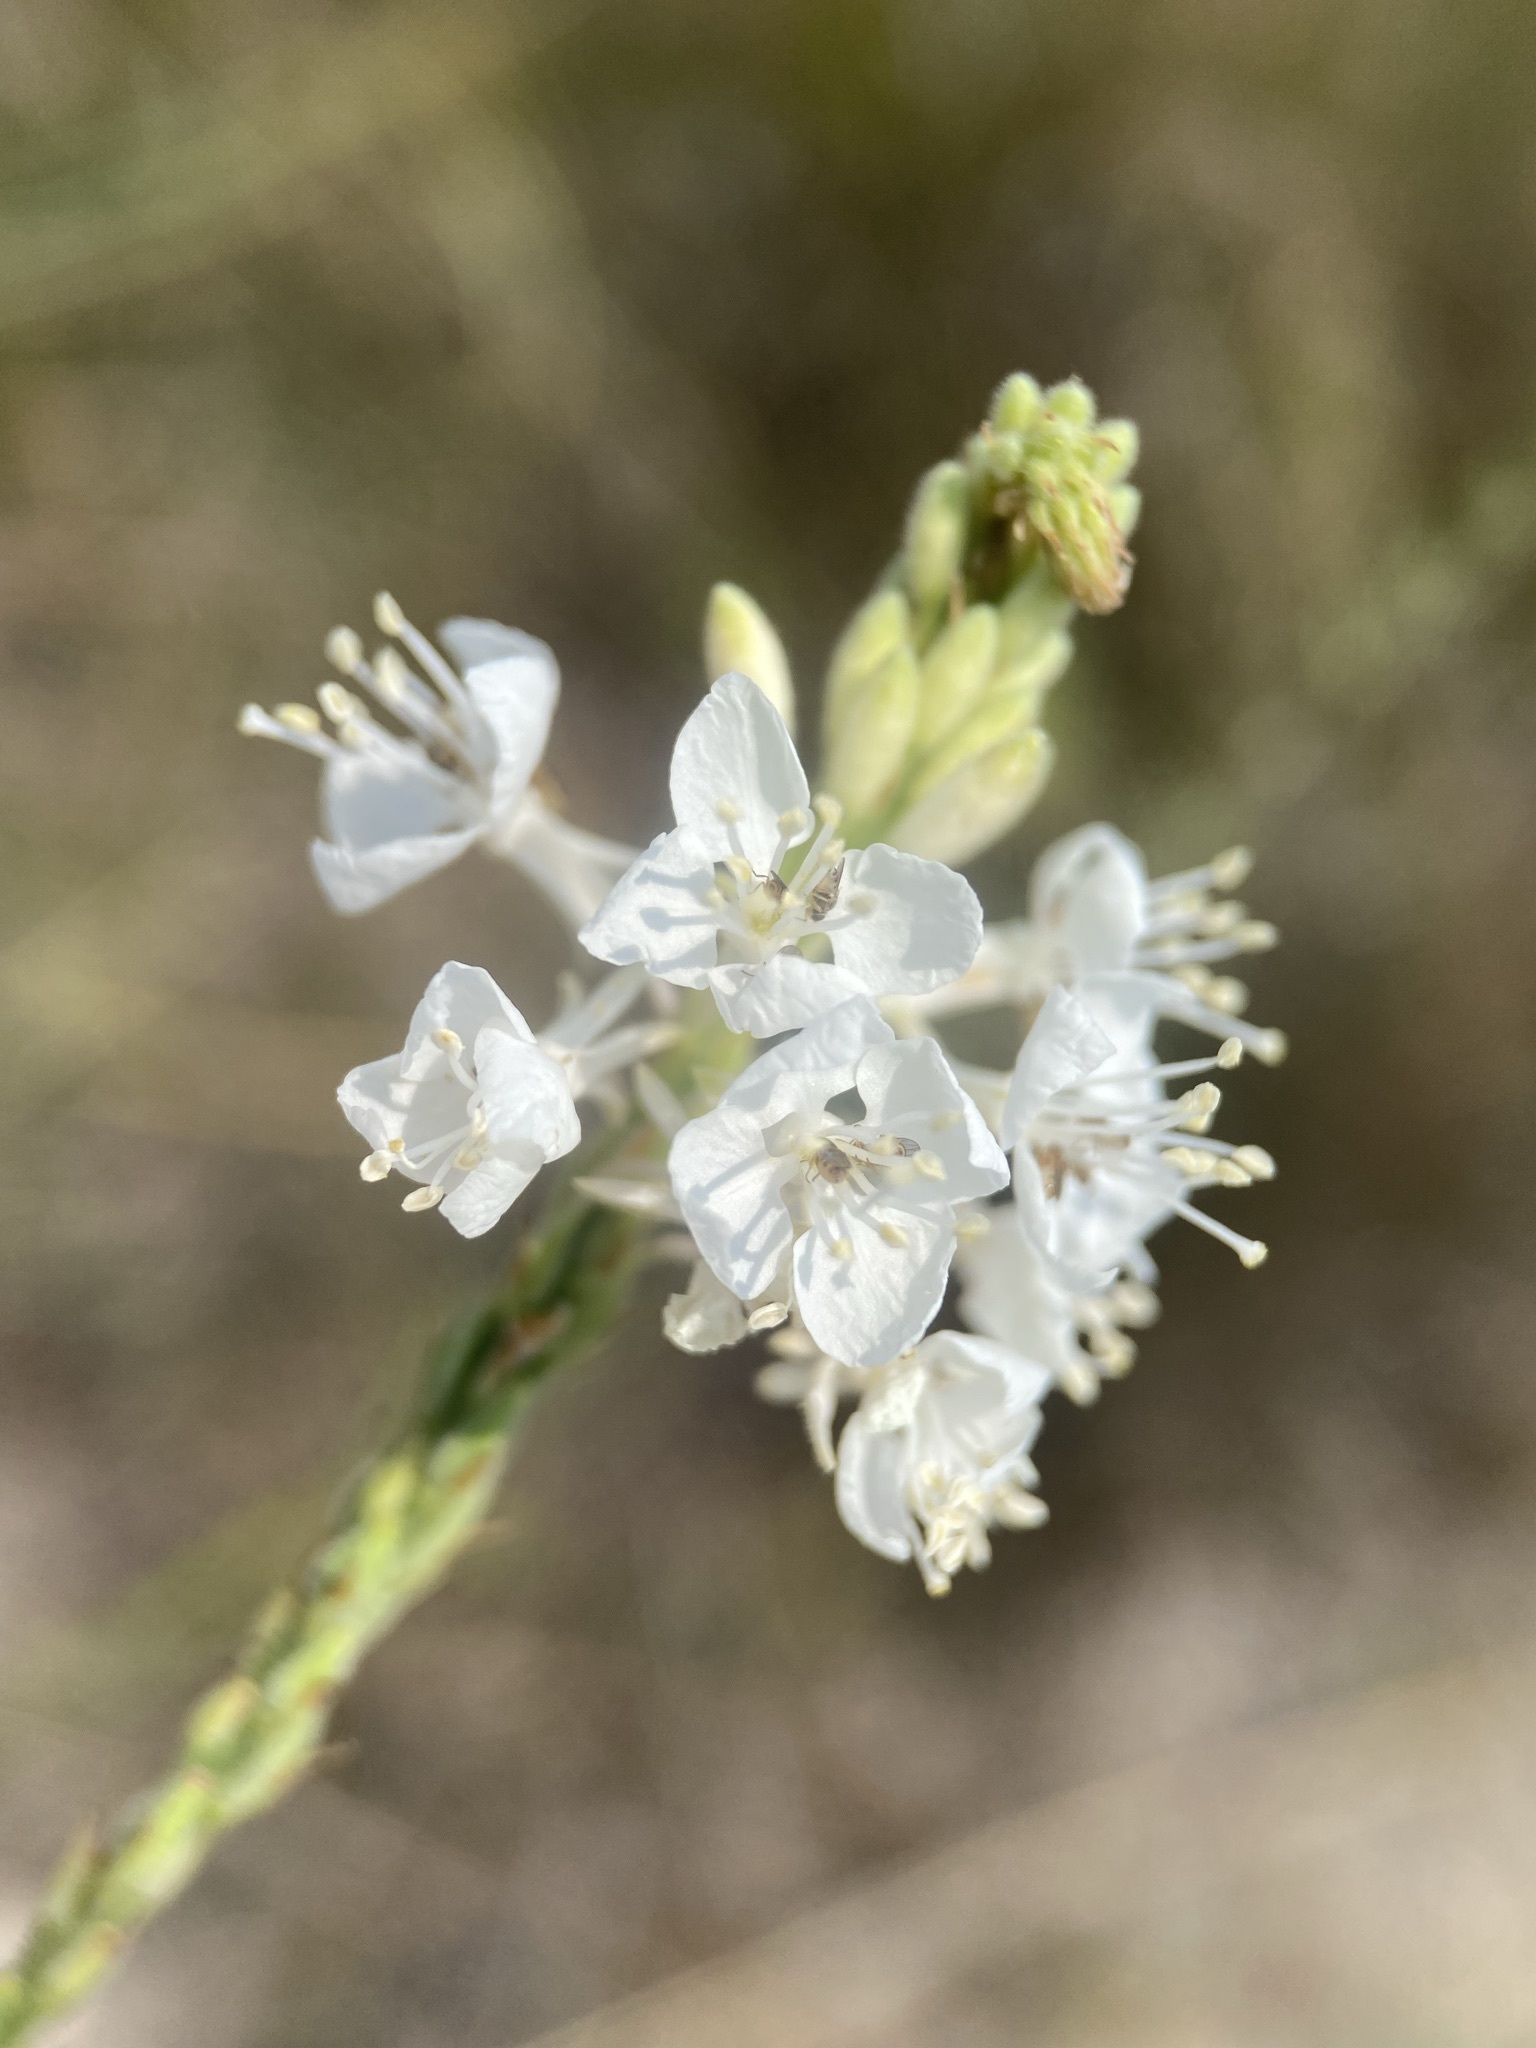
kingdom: Plantae
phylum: Tracheophyta
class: Magnoliopsida
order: Myrtales
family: Onagraceae
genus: Oenothera
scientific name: Oenothera glaucifolia
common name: False gaura
